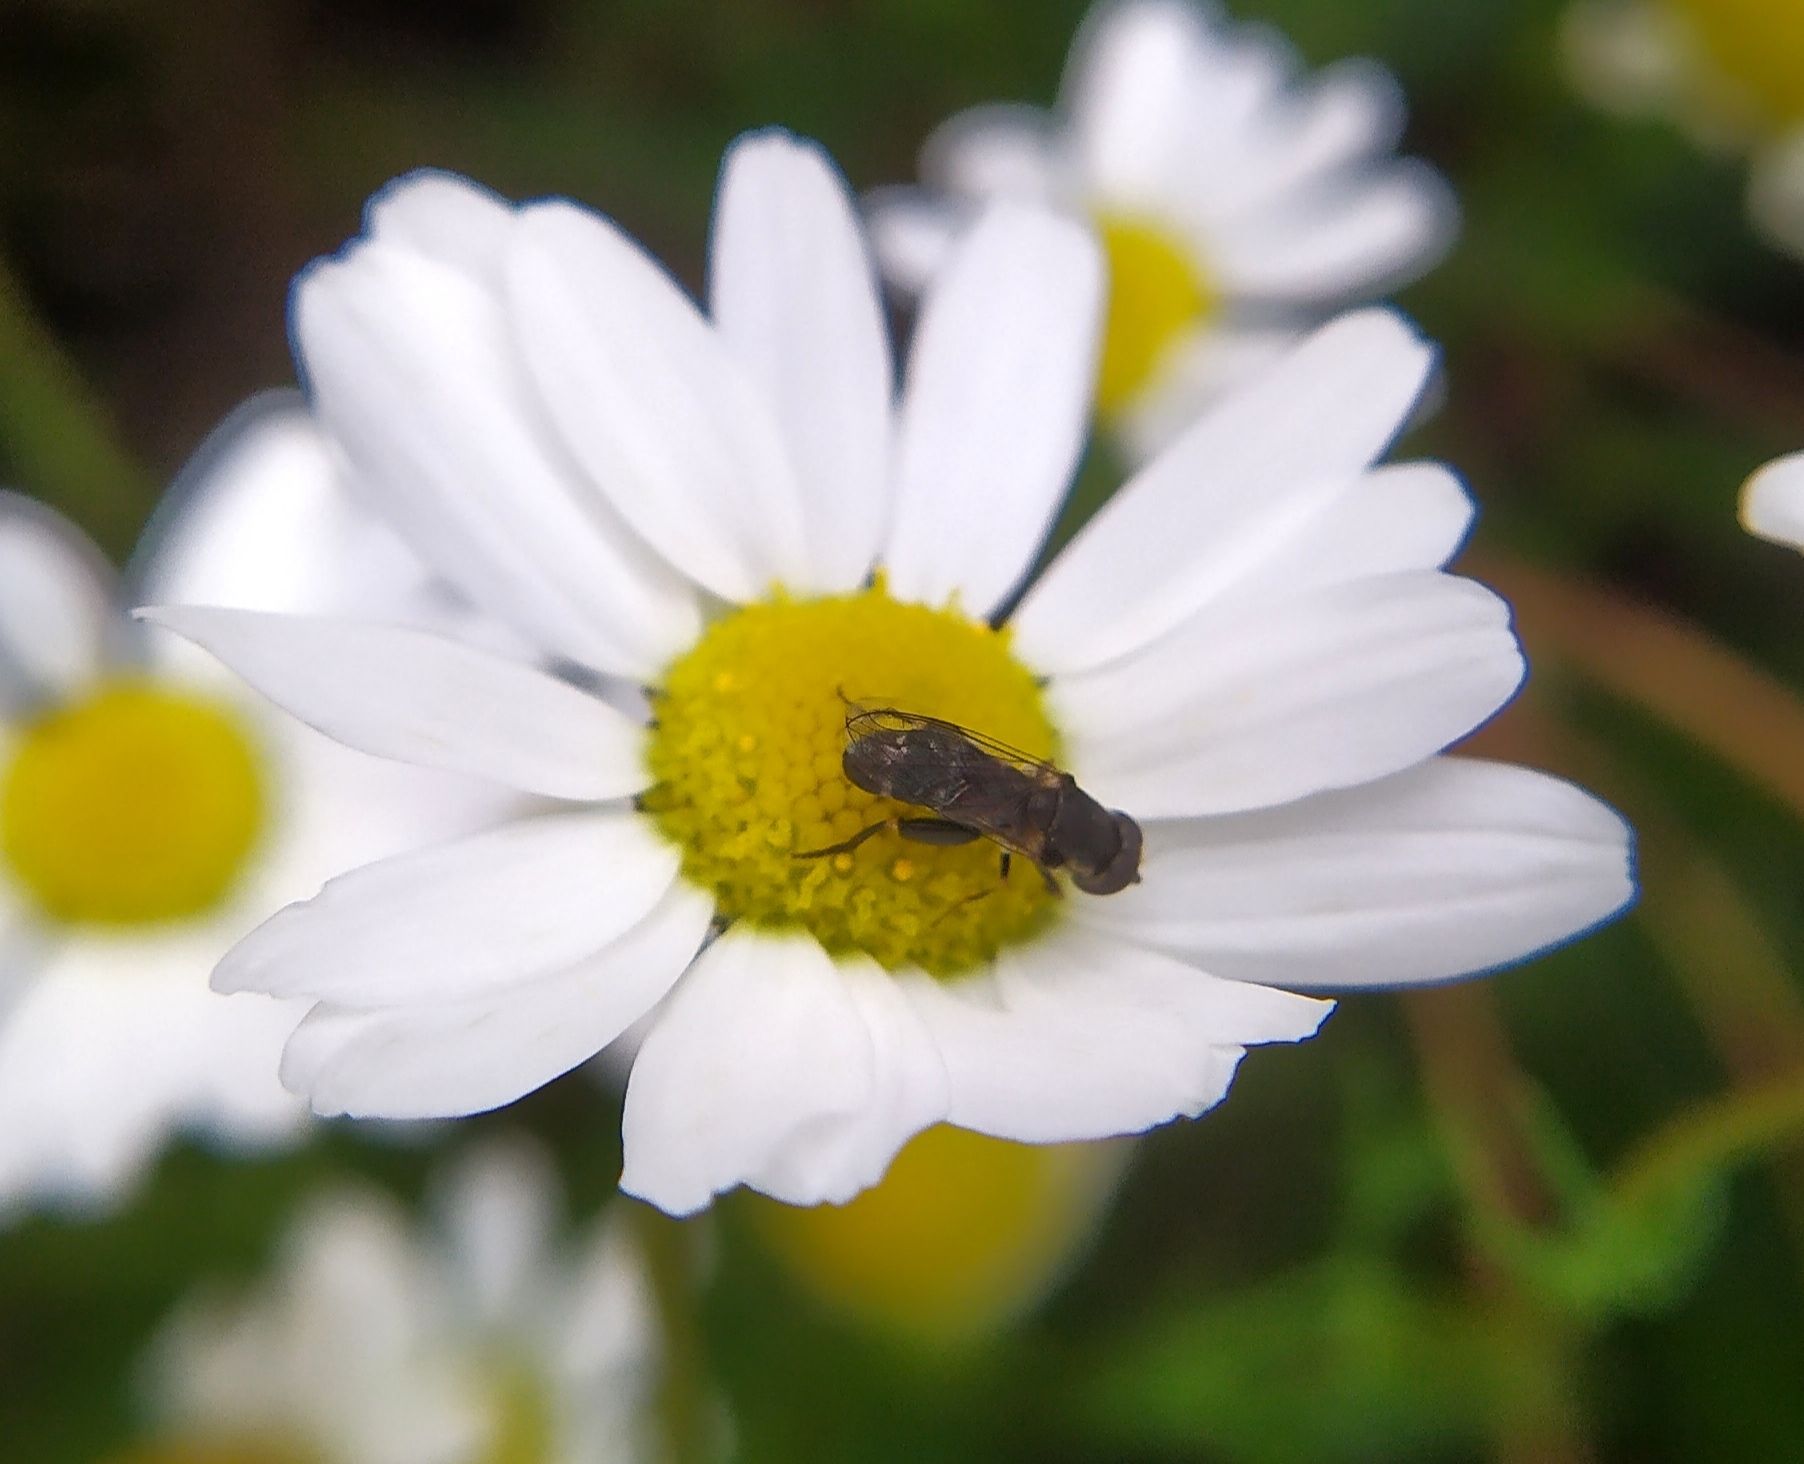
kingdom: Animalia
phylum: Arthropoda
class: Insecta
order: Diptera
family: Syrphidae
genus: Syritta
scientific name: Syritta pipiens
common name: Hover fly
